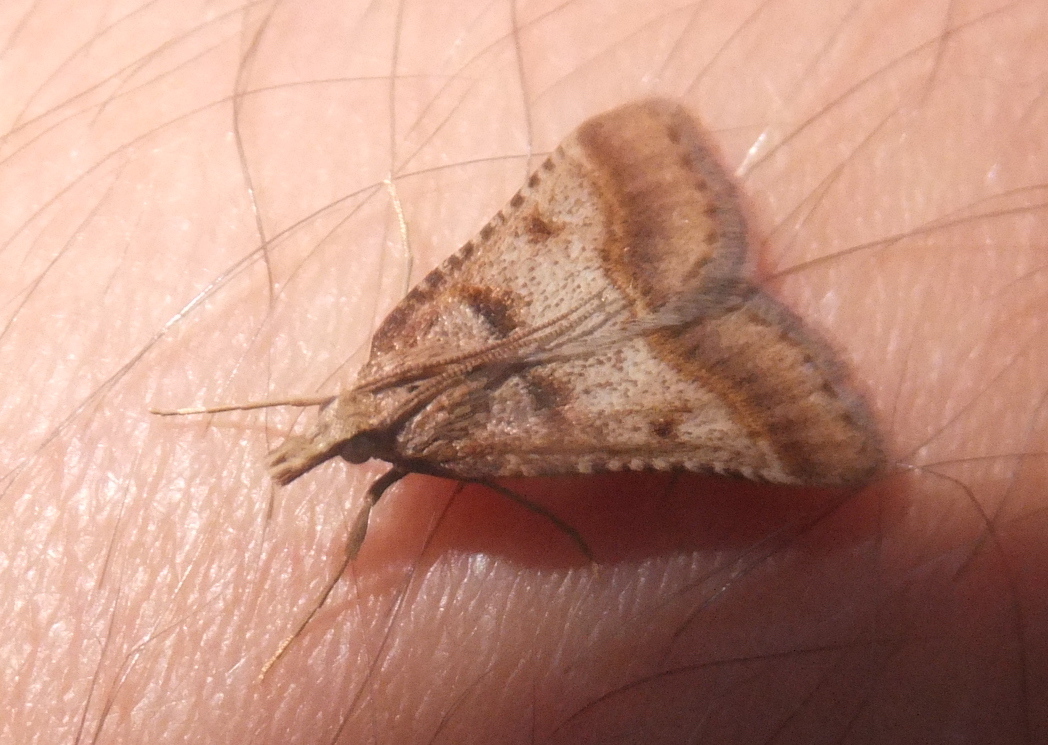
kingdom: Animalia
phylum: Arthropoda
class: Insecta
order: Lepidoptera
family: Pyralidae
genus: Stemmatophora
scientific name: Stemmatophora brunnealis
